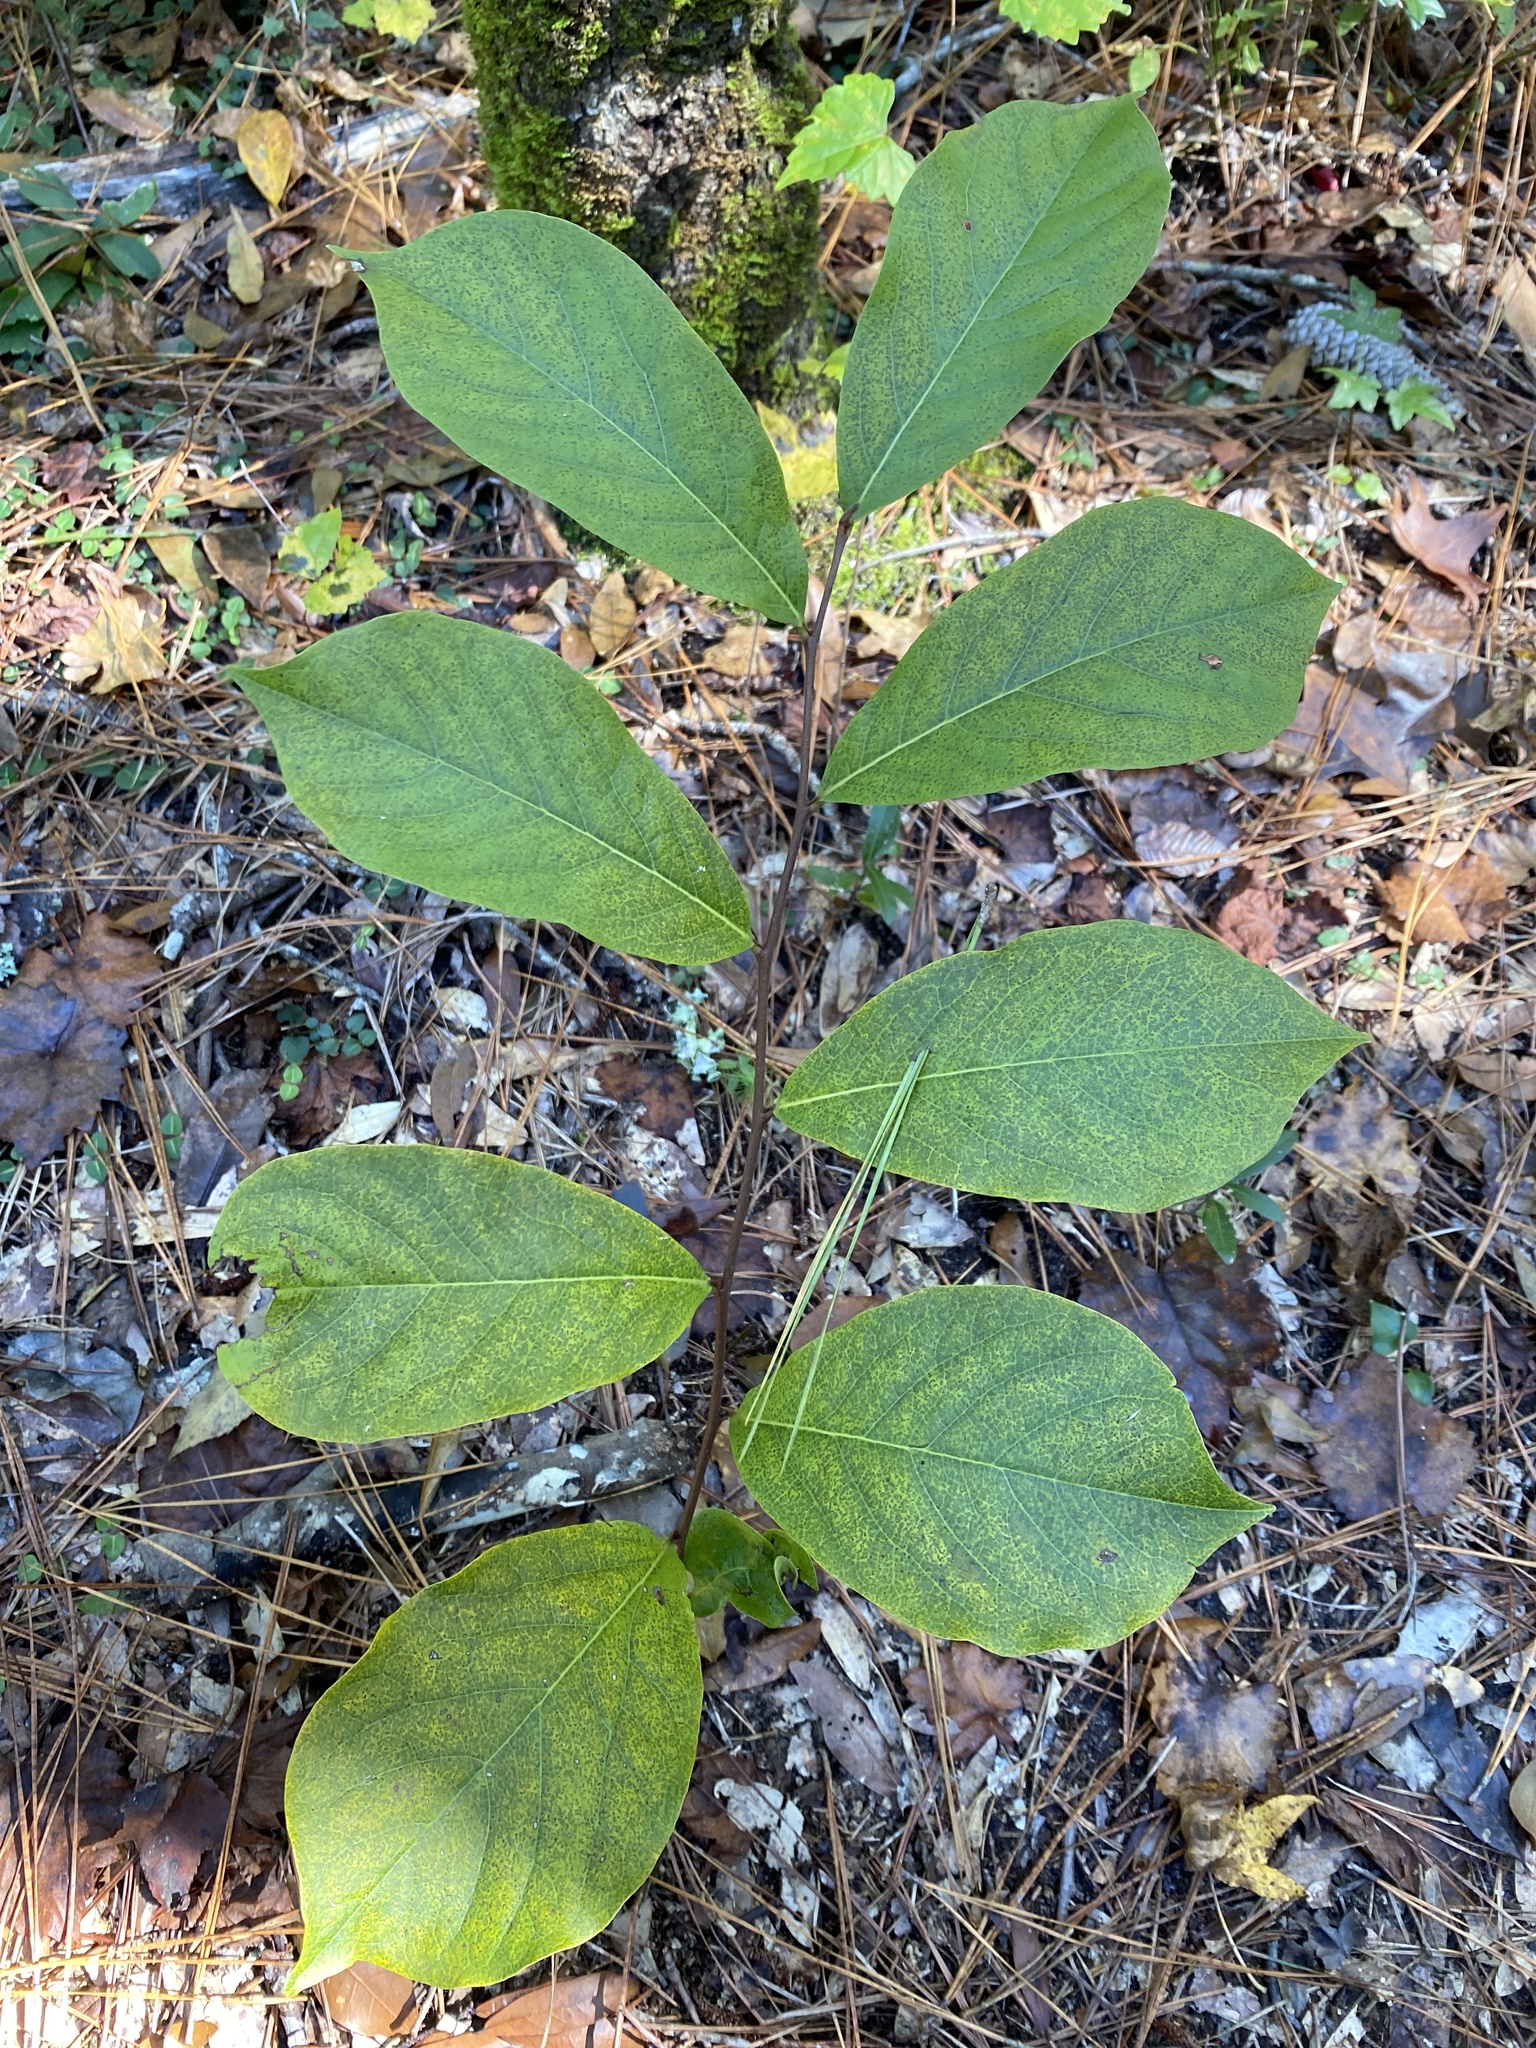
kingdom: Plantae
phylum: Tracheophyta
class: Magnoliopsida
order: Magnoliales
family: Annonaceae
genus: Asimina
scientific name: Asimina parviflora
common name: Dwarf pawpaw
